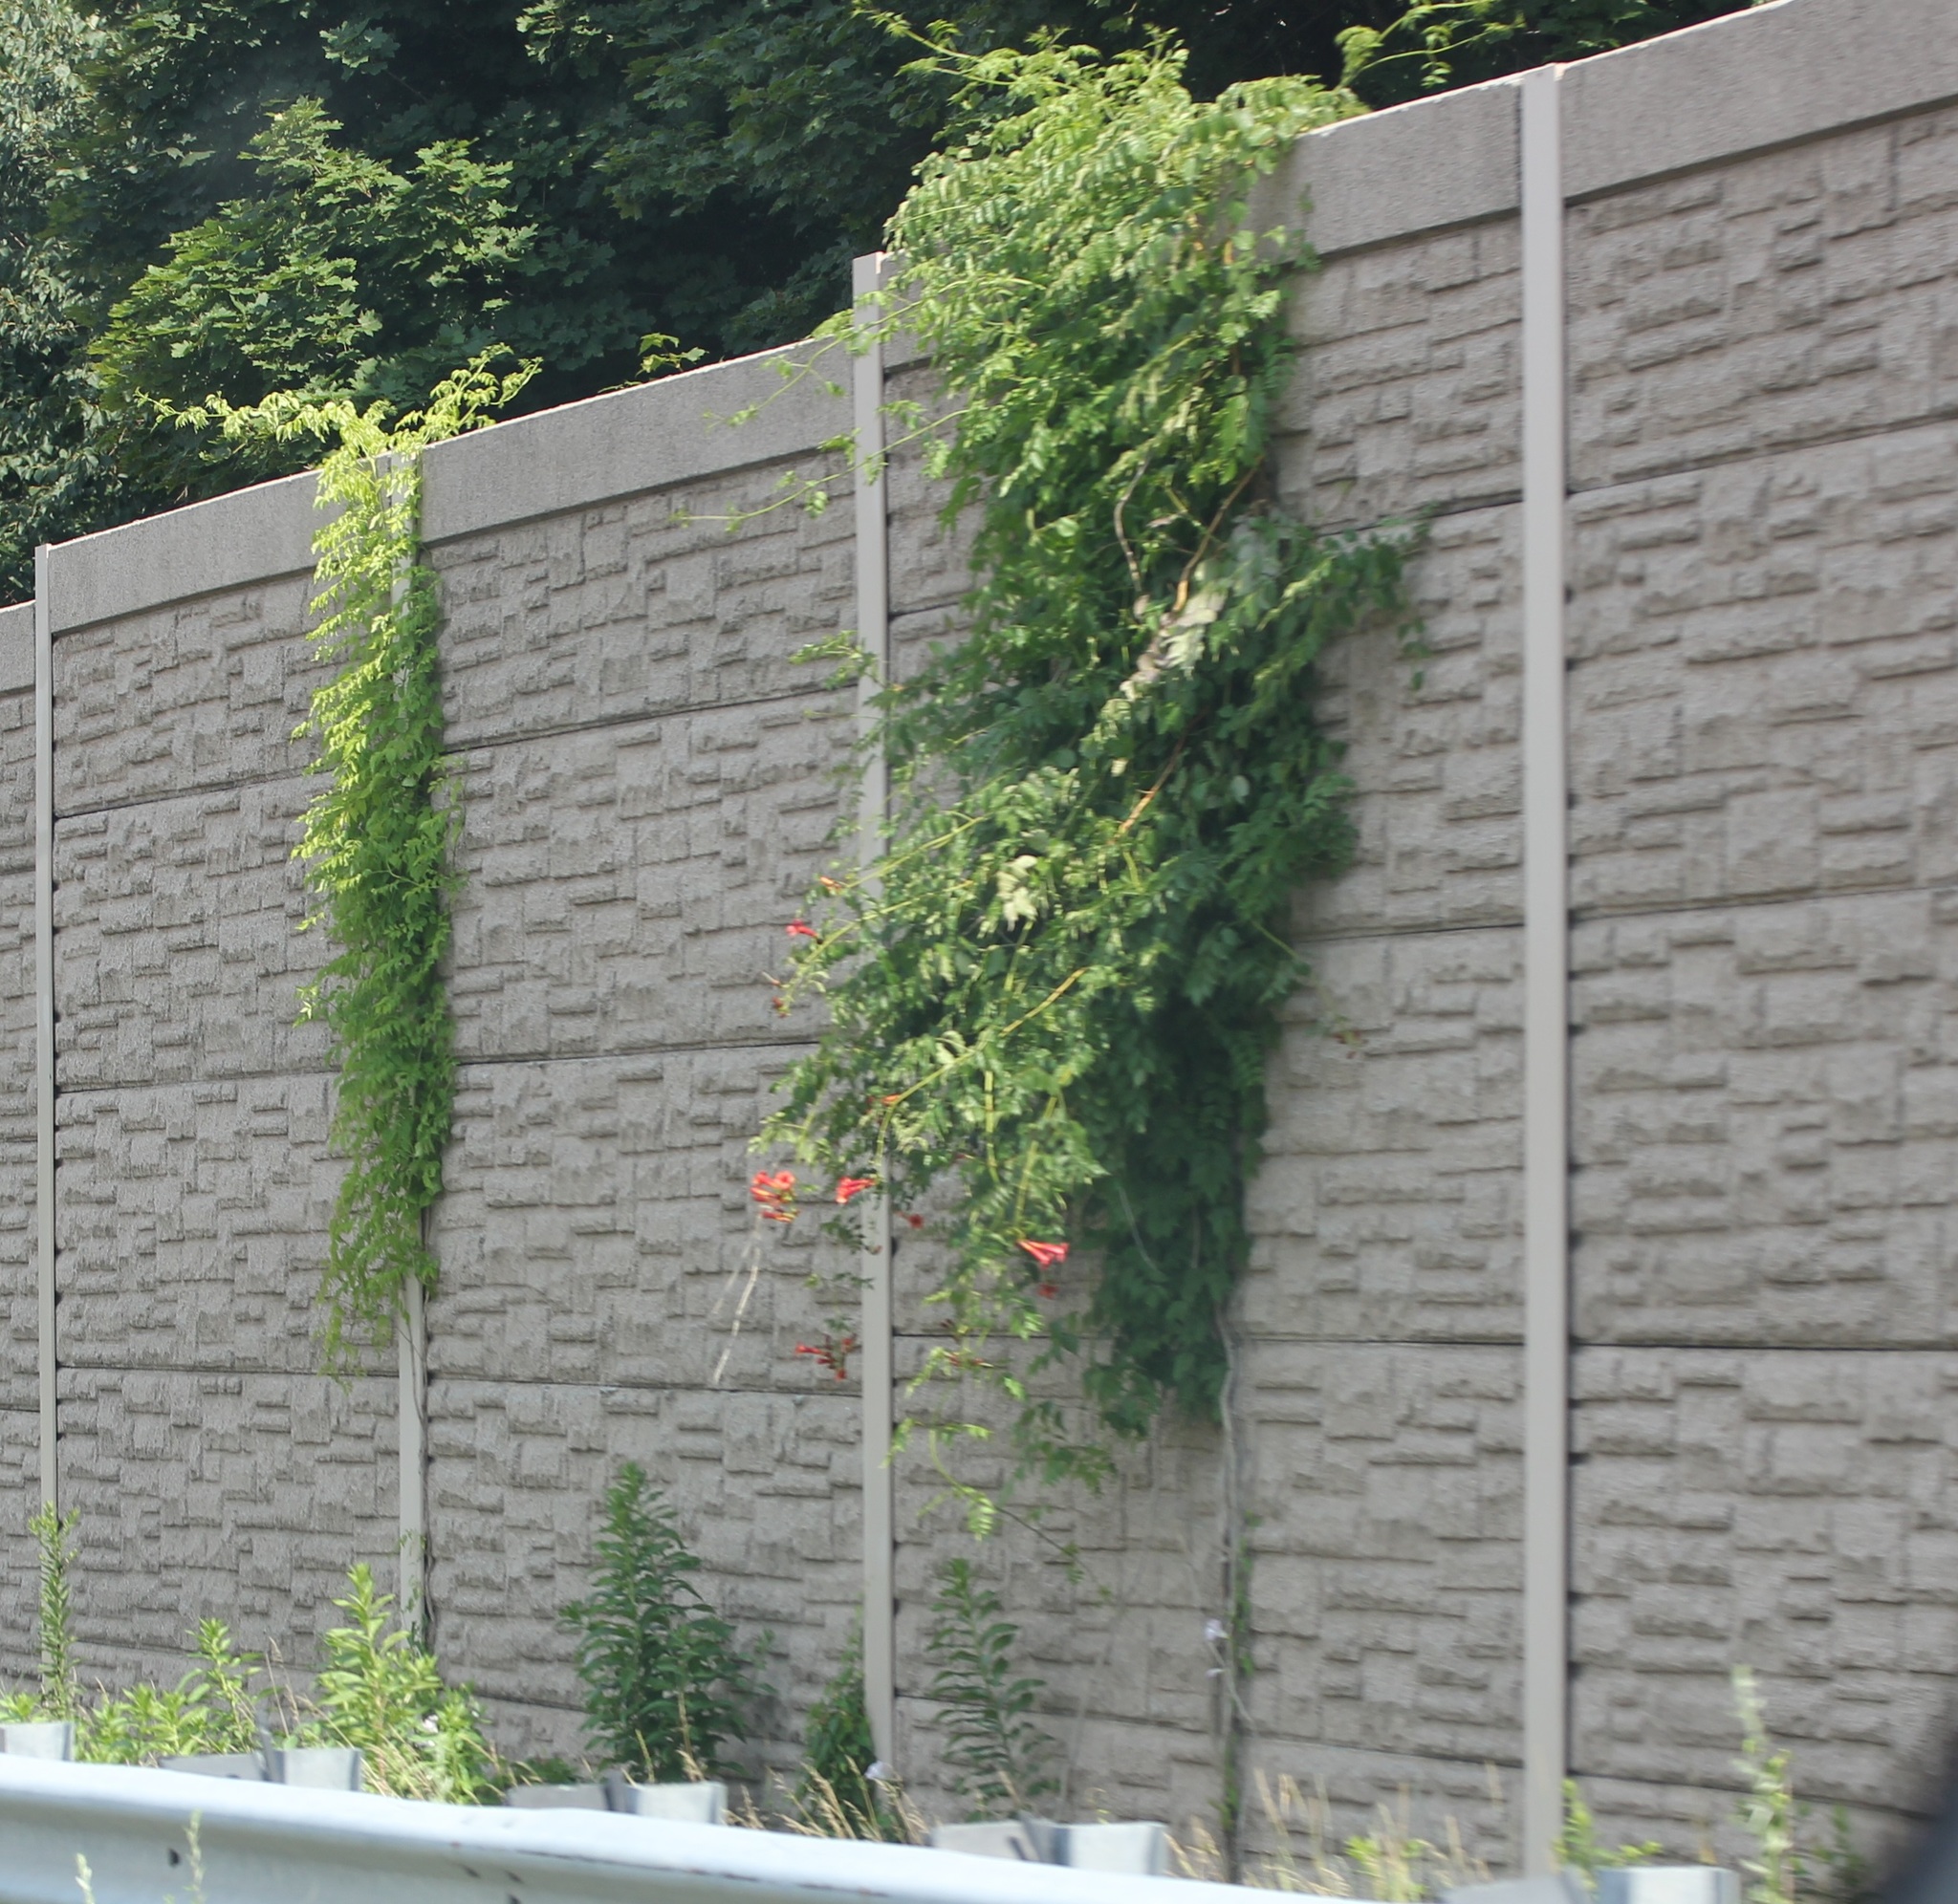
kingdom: Plantae
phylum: Tracheophyta
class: Magnoliopsida
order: Lamiales
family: Bignoniaceae
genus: Campsis
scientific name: Campsis radicans
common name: Trumpet-creeper
